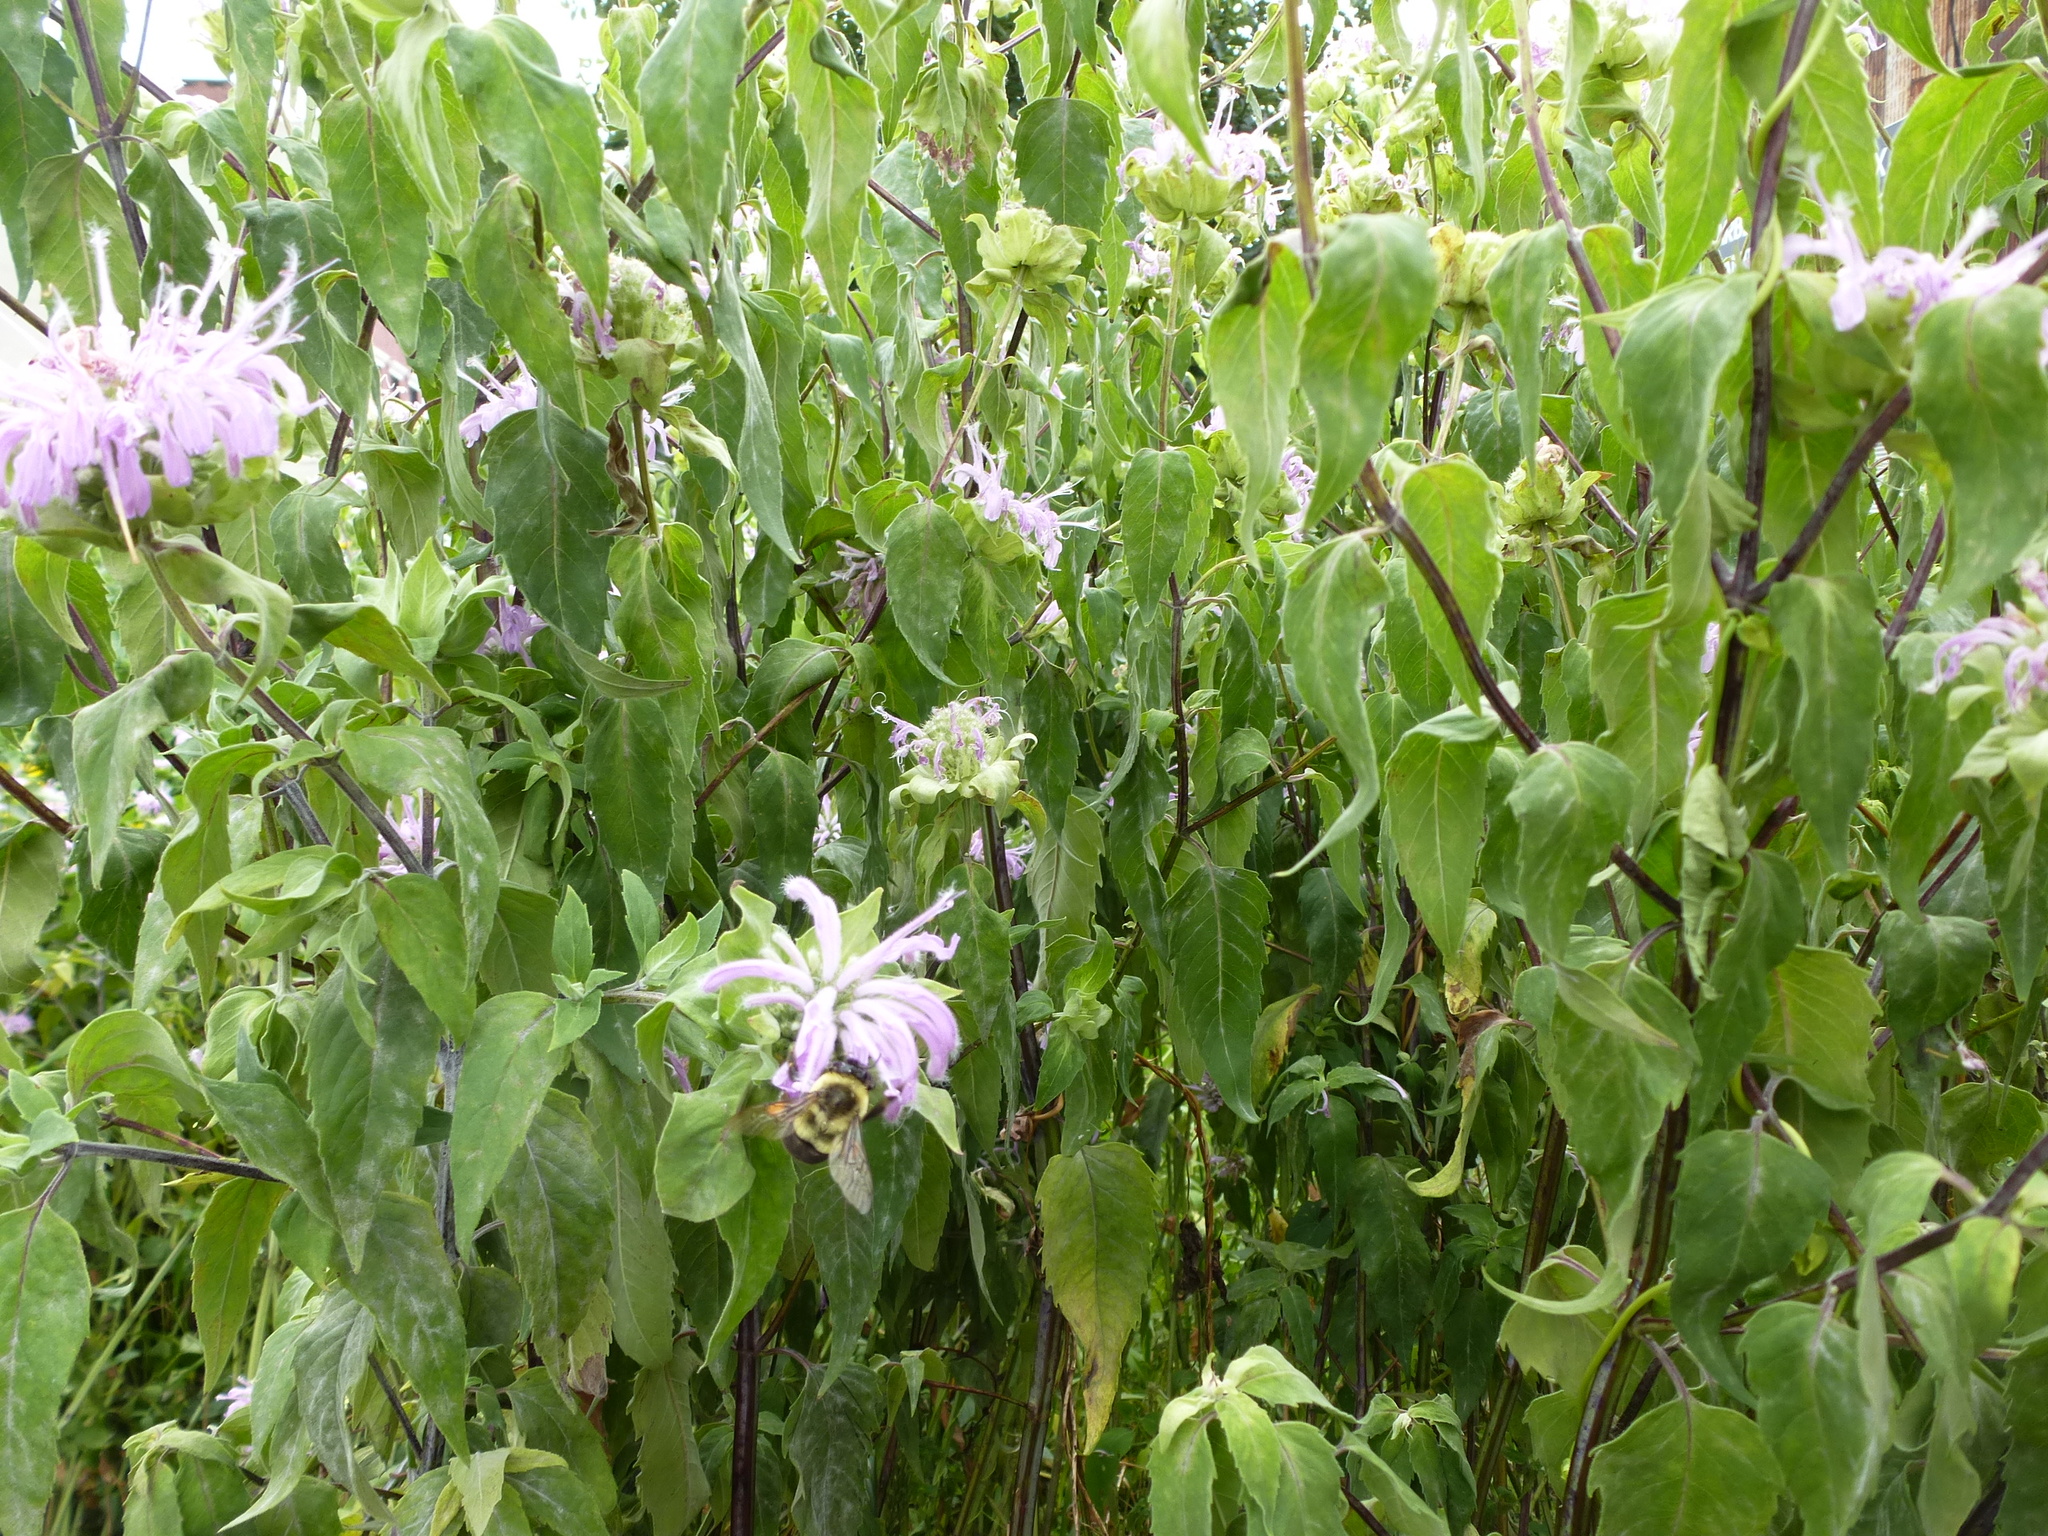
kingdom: Animalia
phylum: Arthropoda
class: Insecta
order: Hymenoptera
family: Apidae
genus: Bombus
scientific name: Bombus impatiens
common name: Common eastern bumble bee
